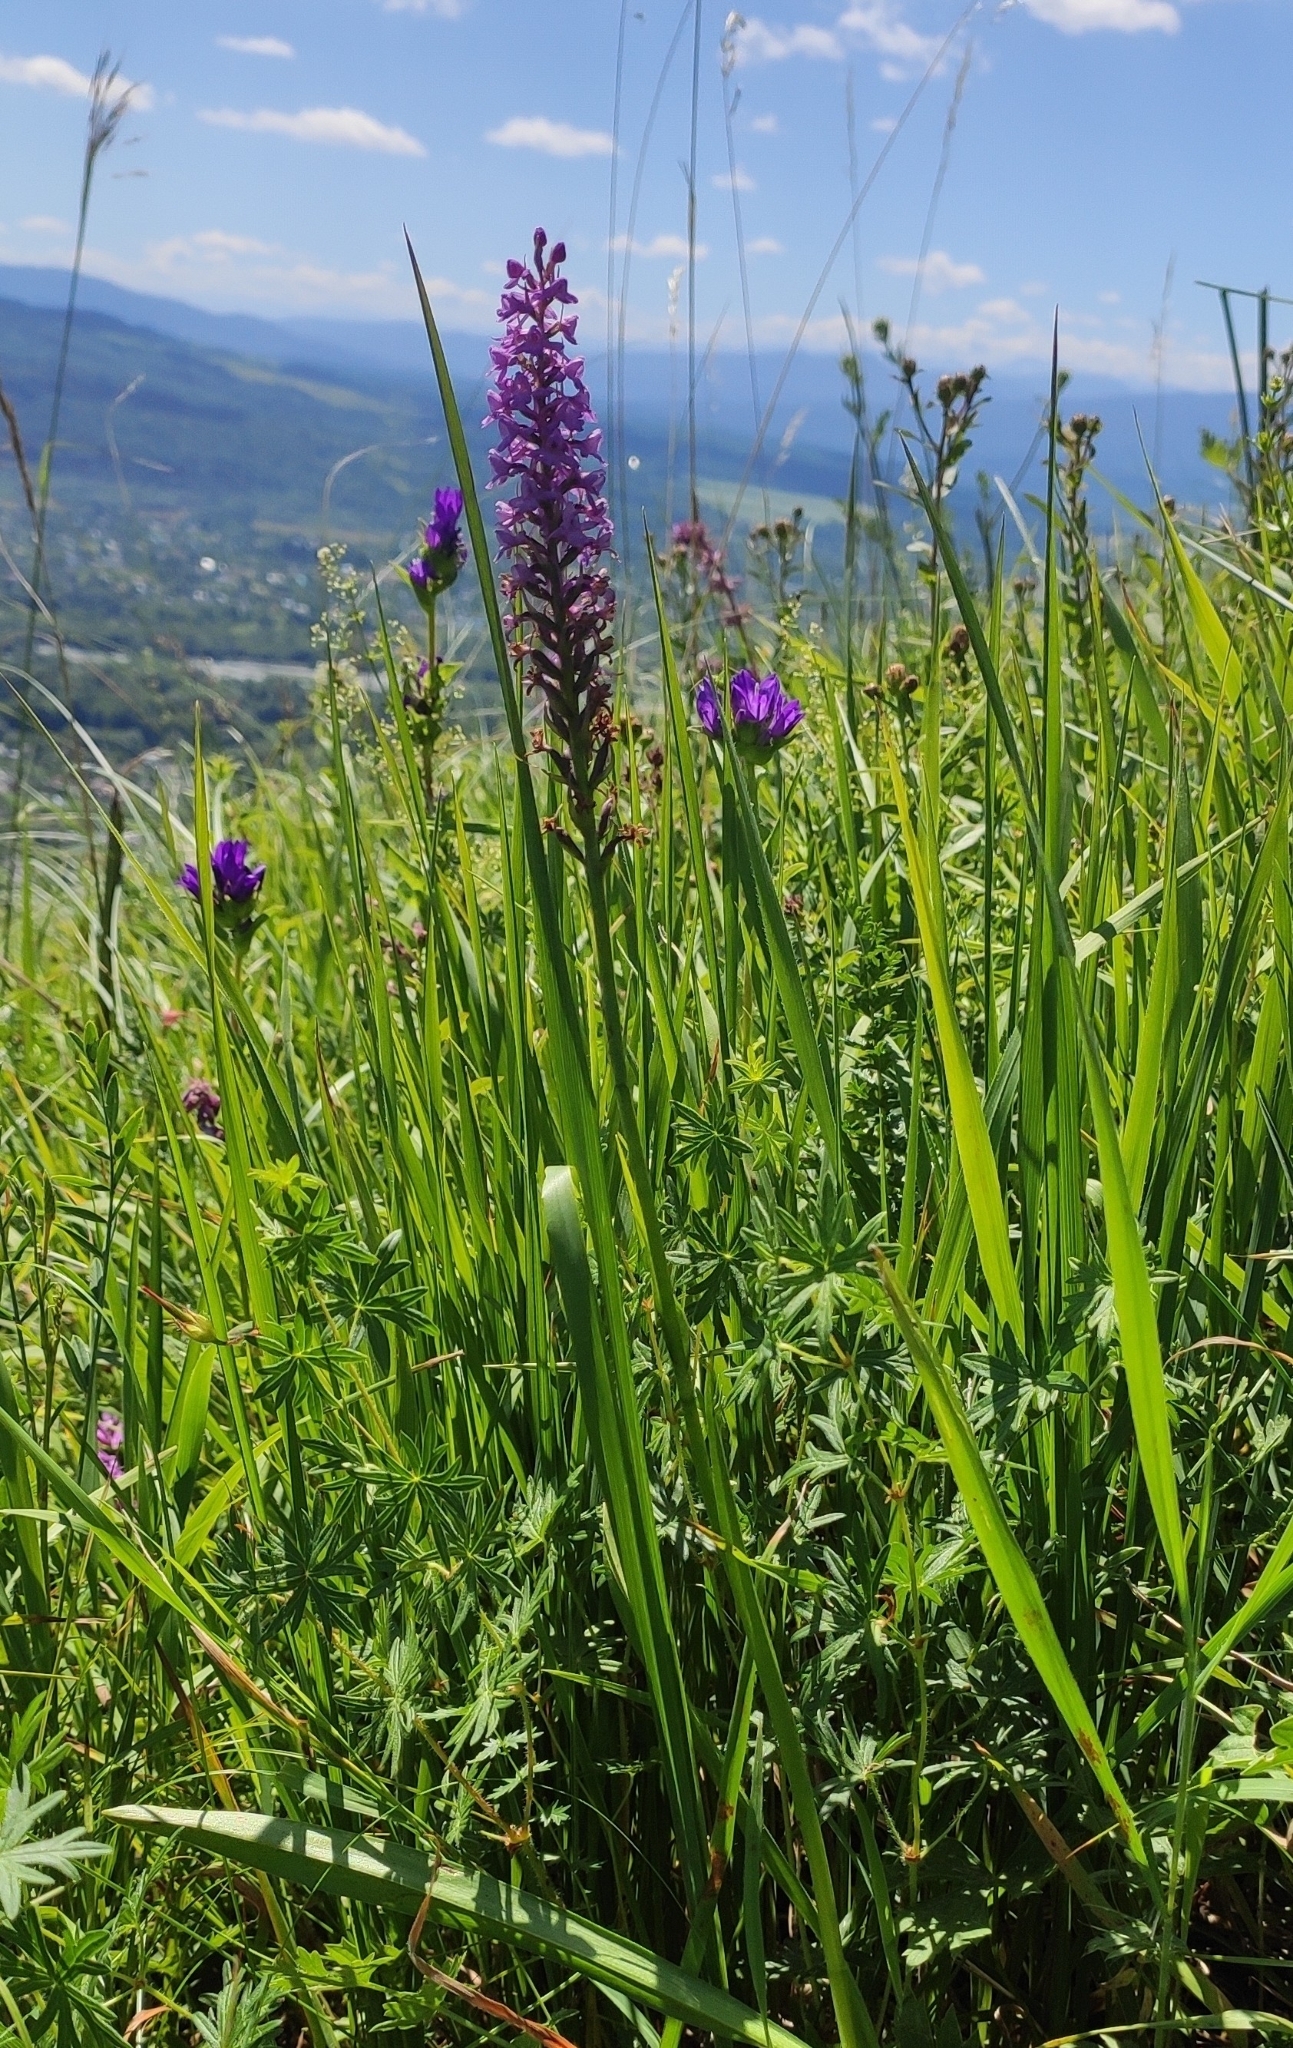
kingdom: Plantae
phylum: Tracheophyta
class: Liliopsida
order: Asparagales
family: Orchidaceae
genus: Gymnadenia
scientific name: Gymnadenia conopsea
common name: Fragrant orchid
